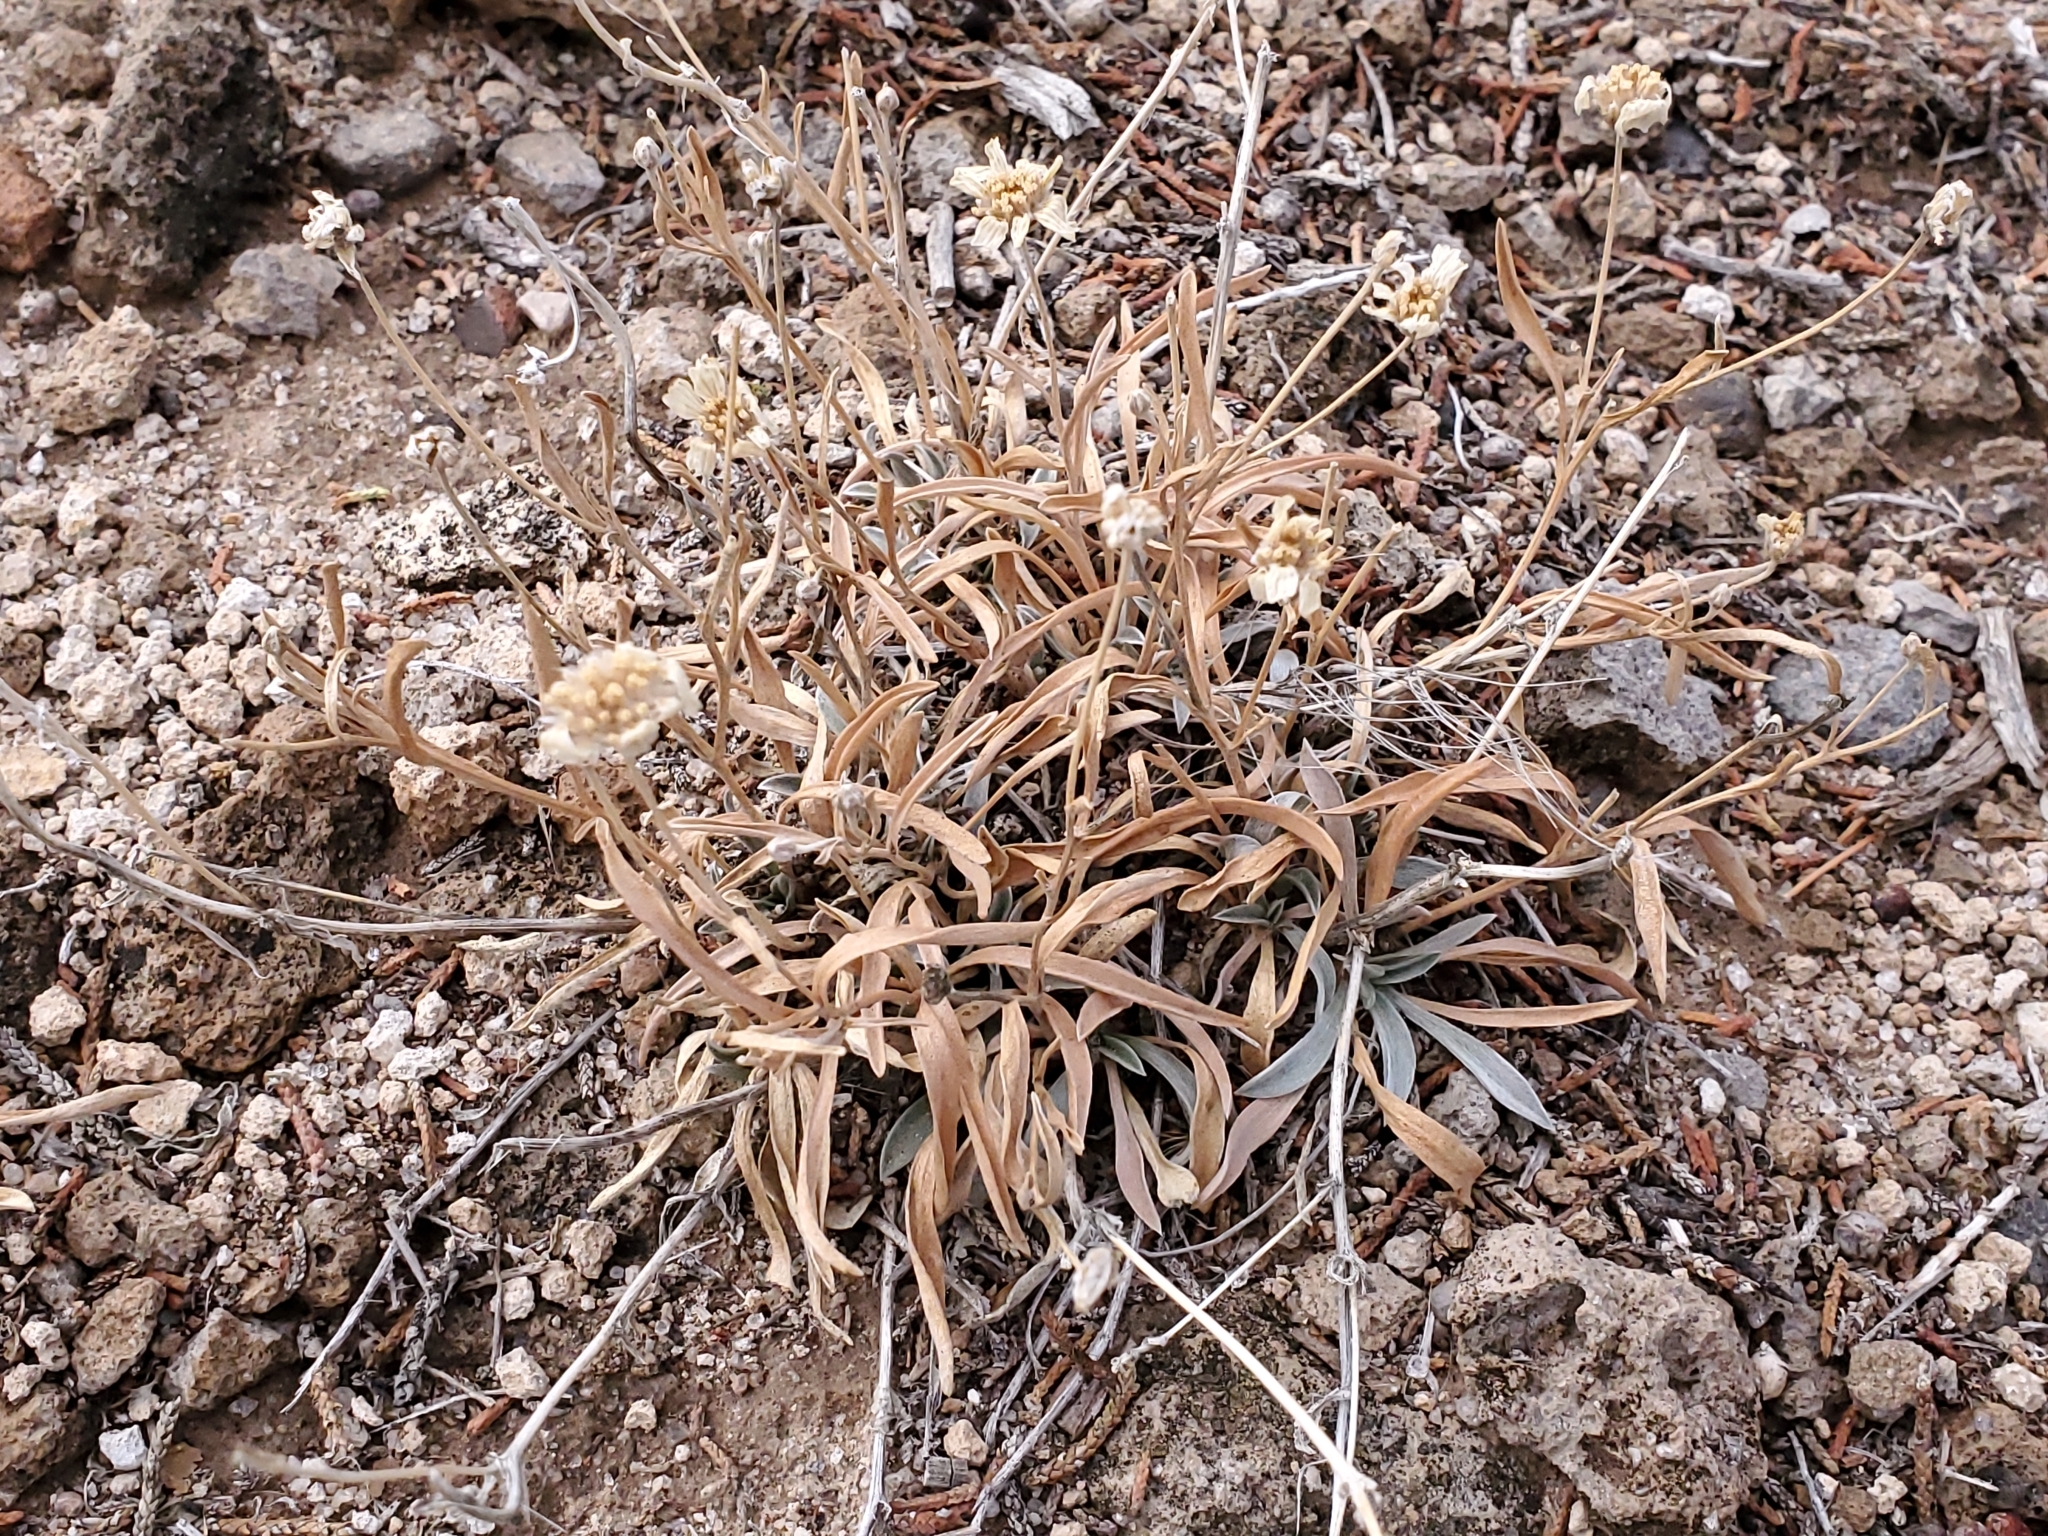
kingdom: Plantae
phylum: Tracheophyta
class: Magnoliopsida
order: Asterales
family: Asteraceae
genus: Tetraneuris
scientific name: Tetraneuris argentea
